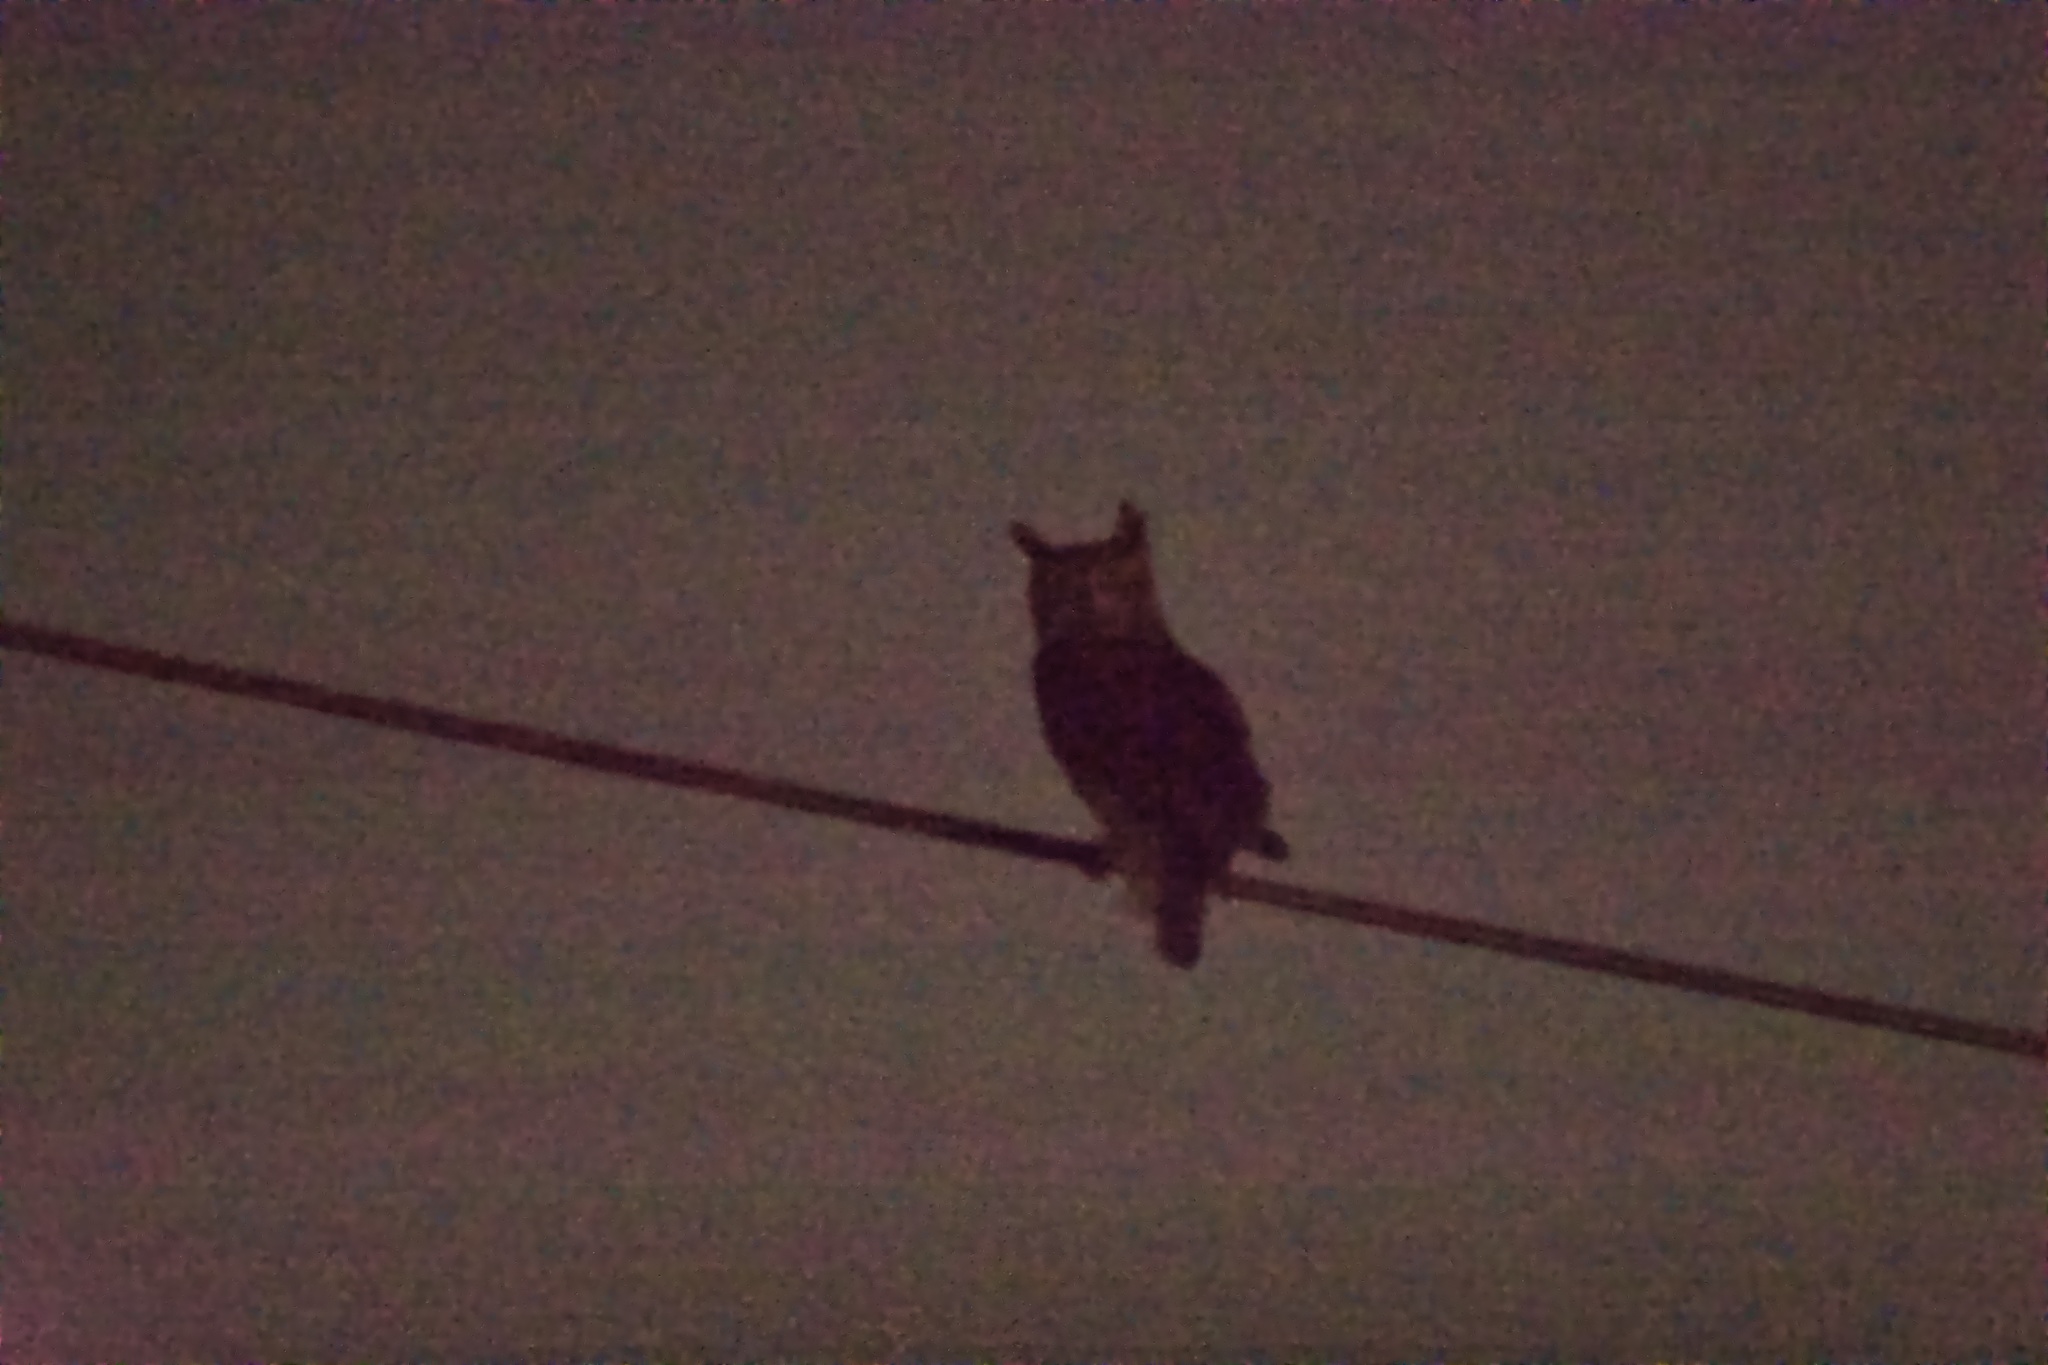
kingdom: Animalia
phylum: Chordata
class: Aves
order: Strigiformes
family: Strigidae
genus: Bubo
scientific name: Bubo virginianus
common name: Great horned owl
